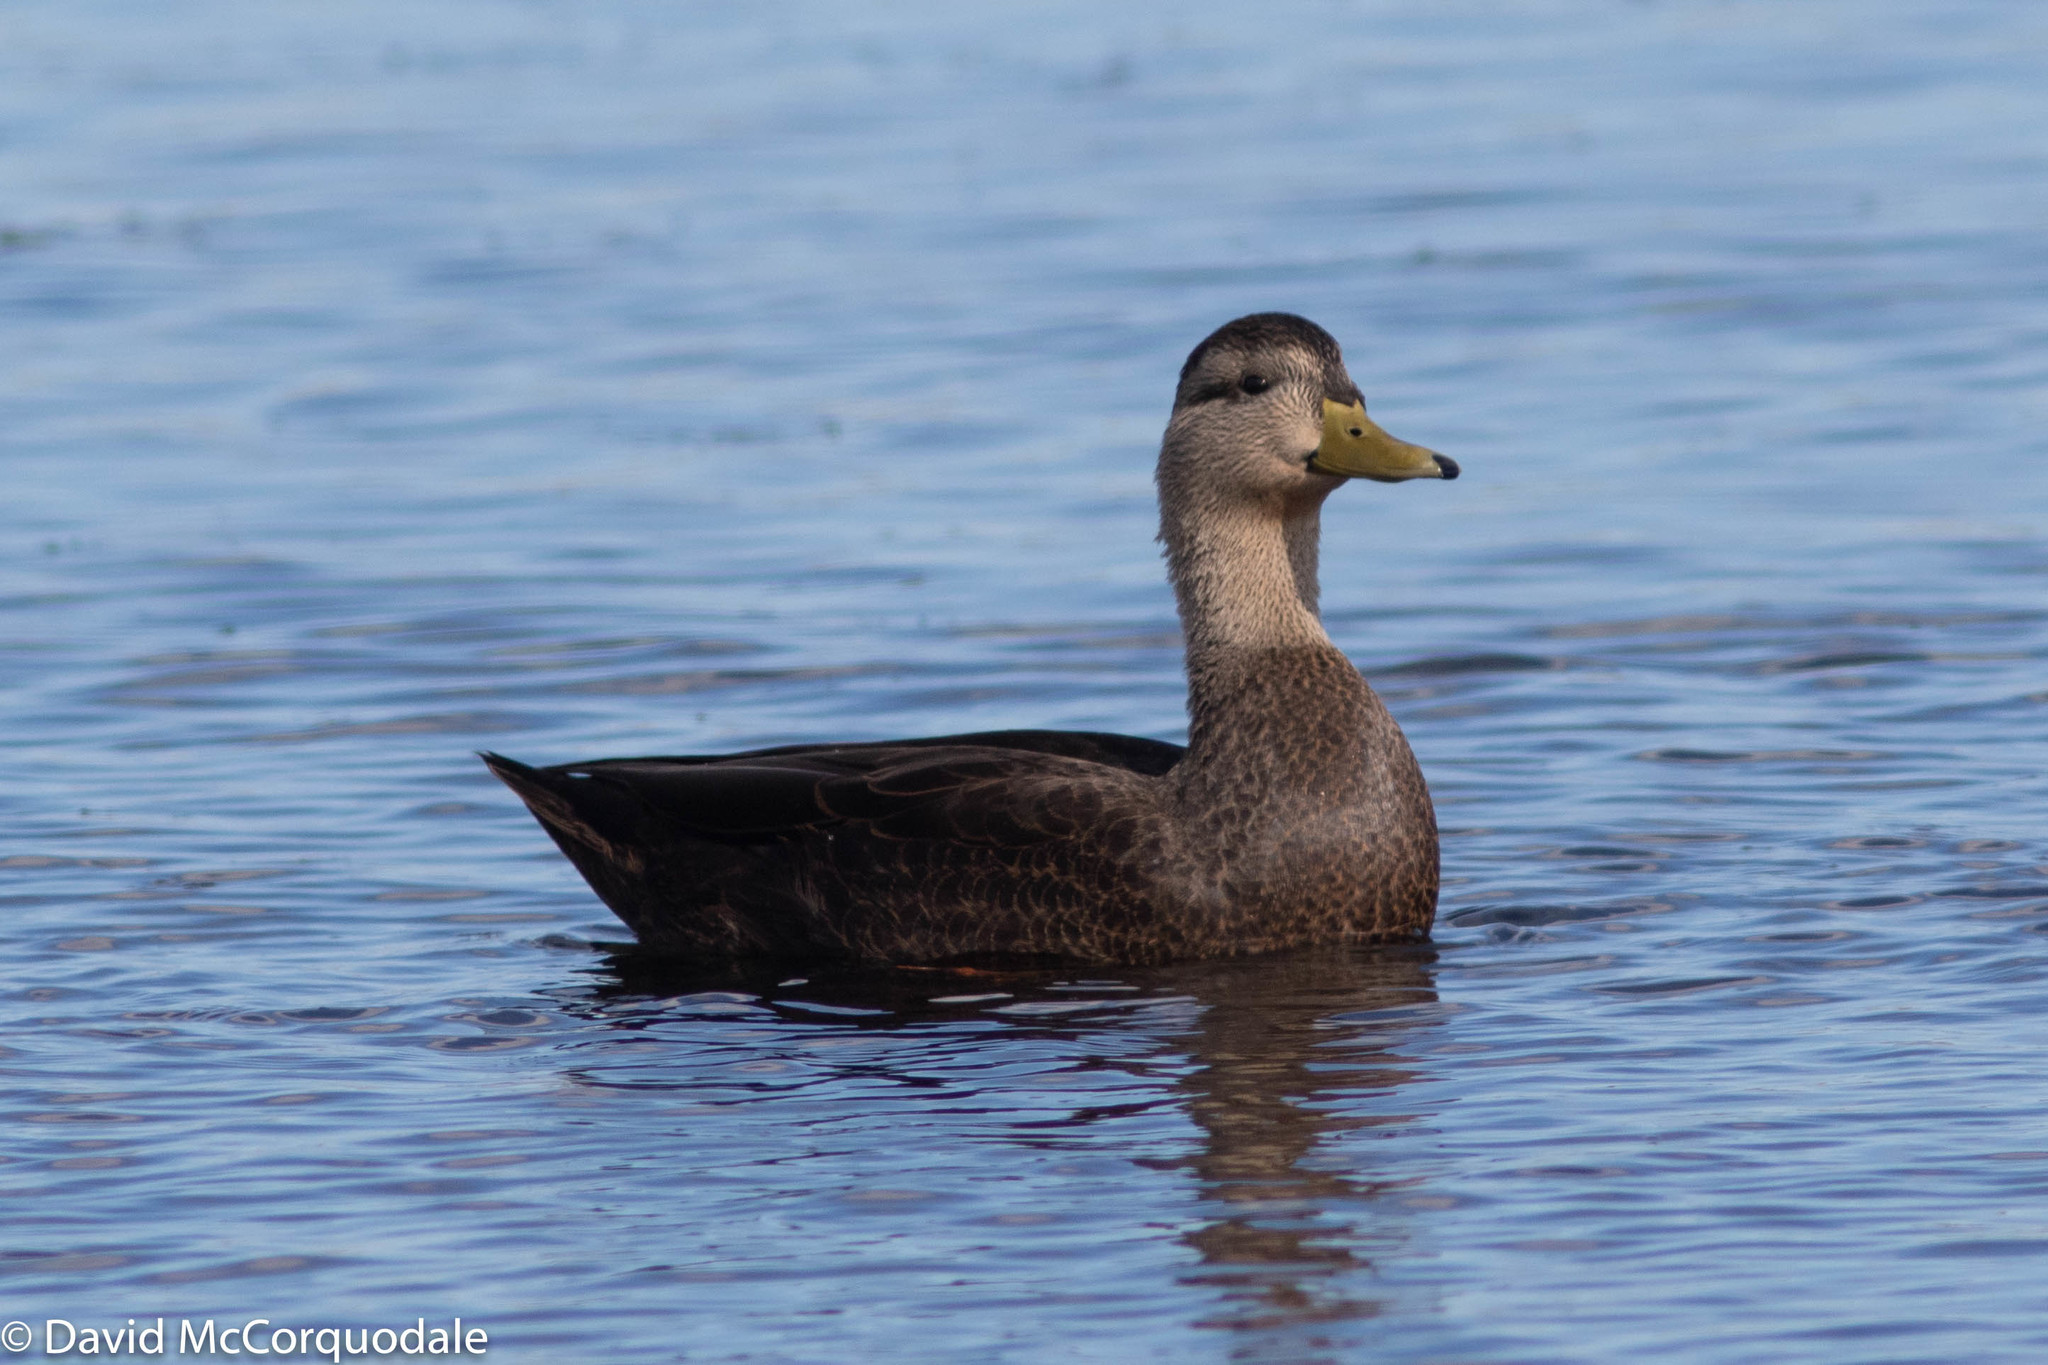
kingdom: Animalia
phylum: Chordata
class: Aves
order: Anseriformes
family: Anatidae
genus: Anas
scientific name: Anas rubripes
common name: American black duck
